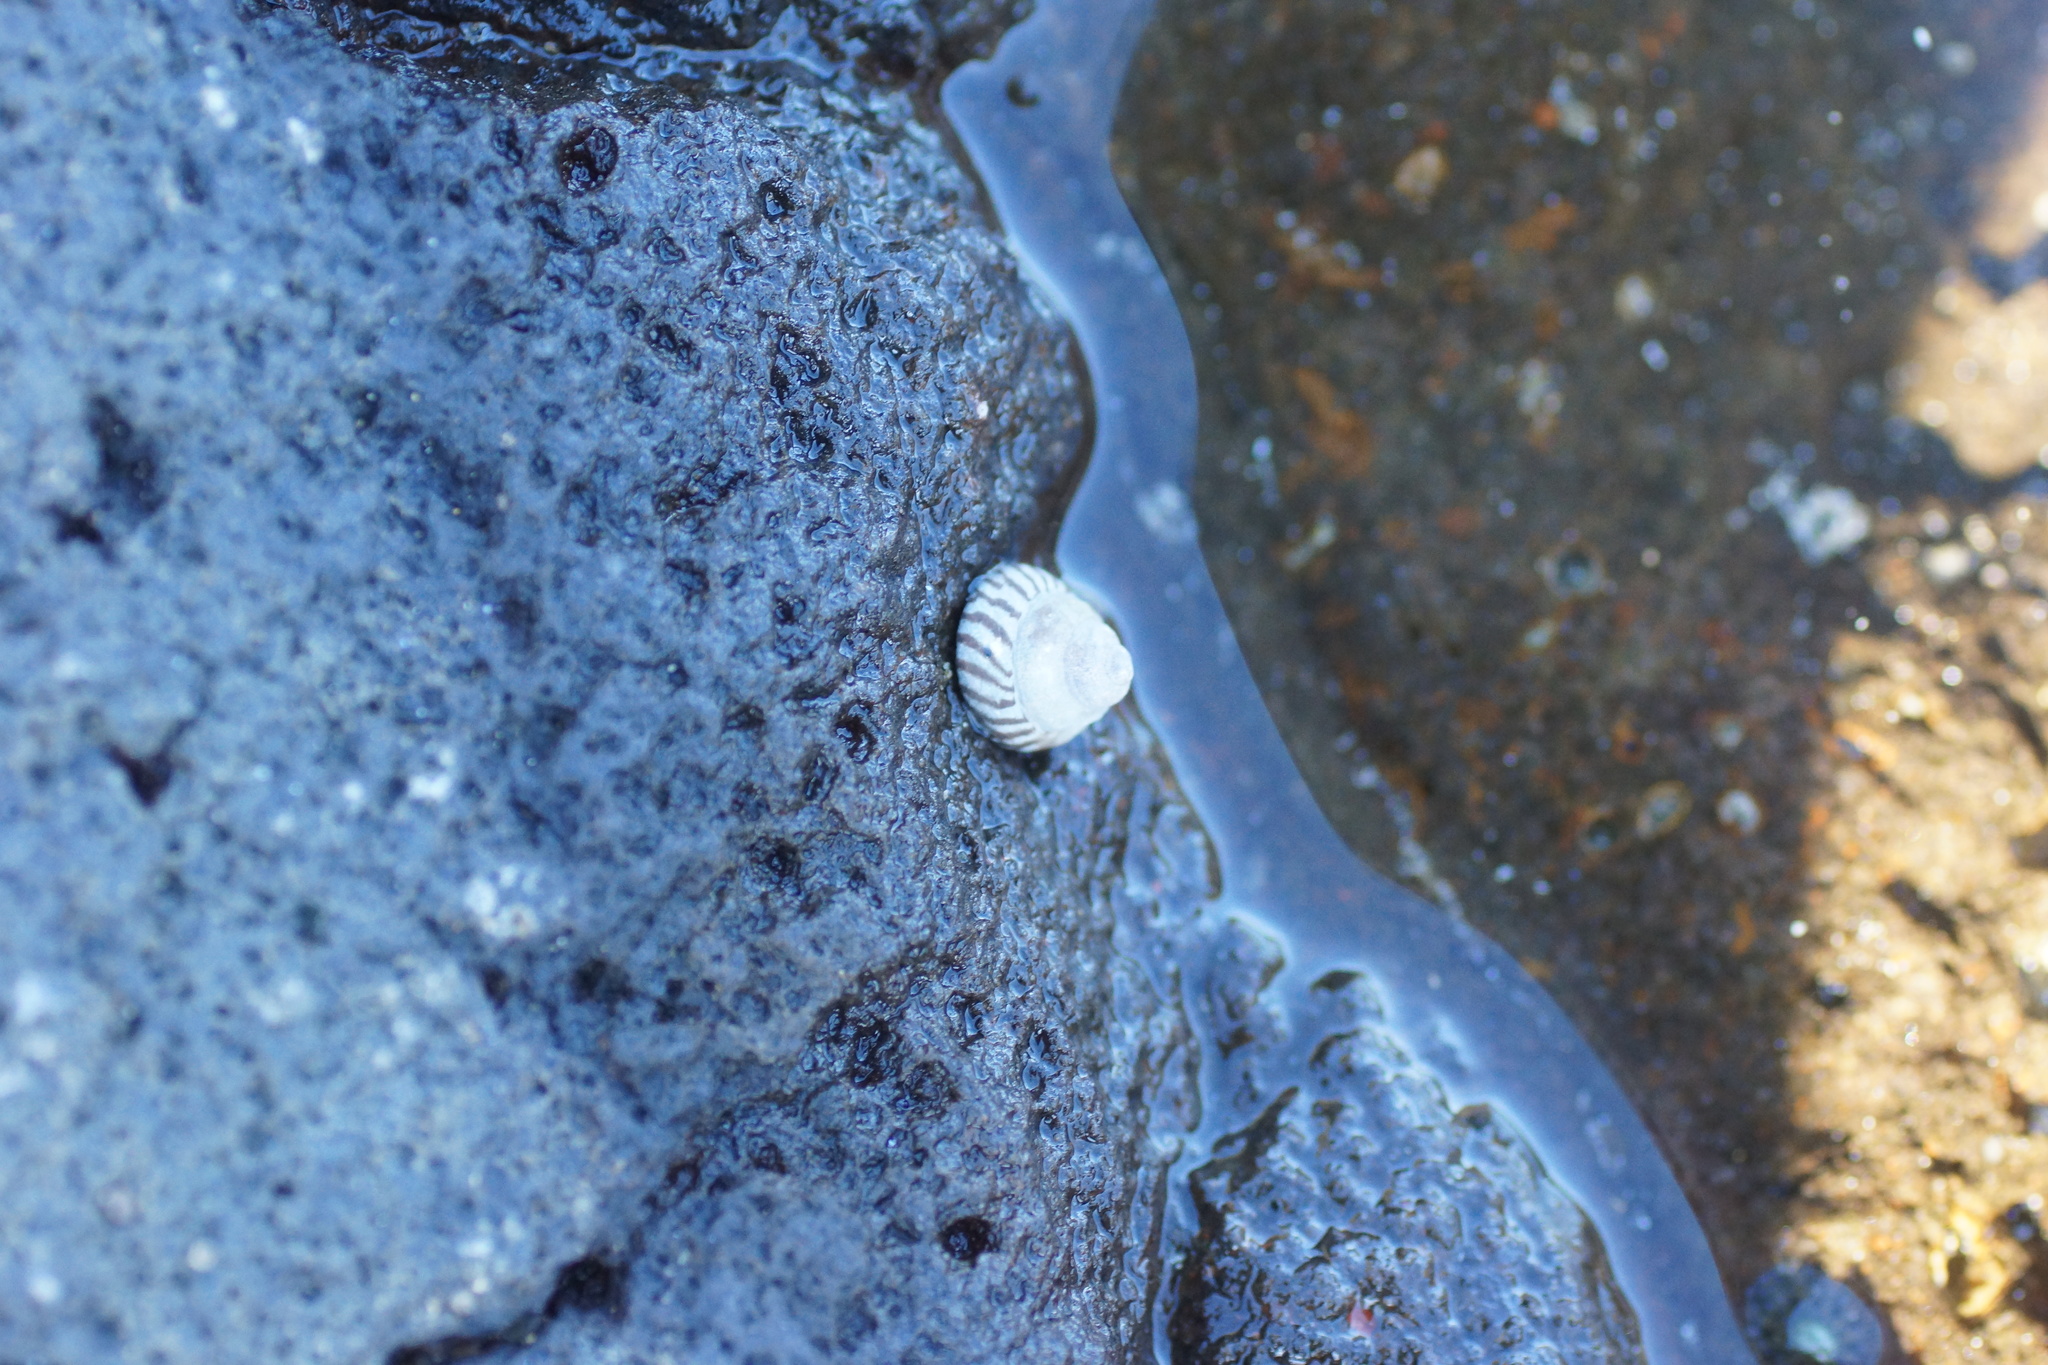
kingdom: Animalia
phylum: Mollusca
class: Gastropoda
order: Littorinimorpha
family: Littorinidae
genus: Bembicium
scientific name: Bembicium nanum
